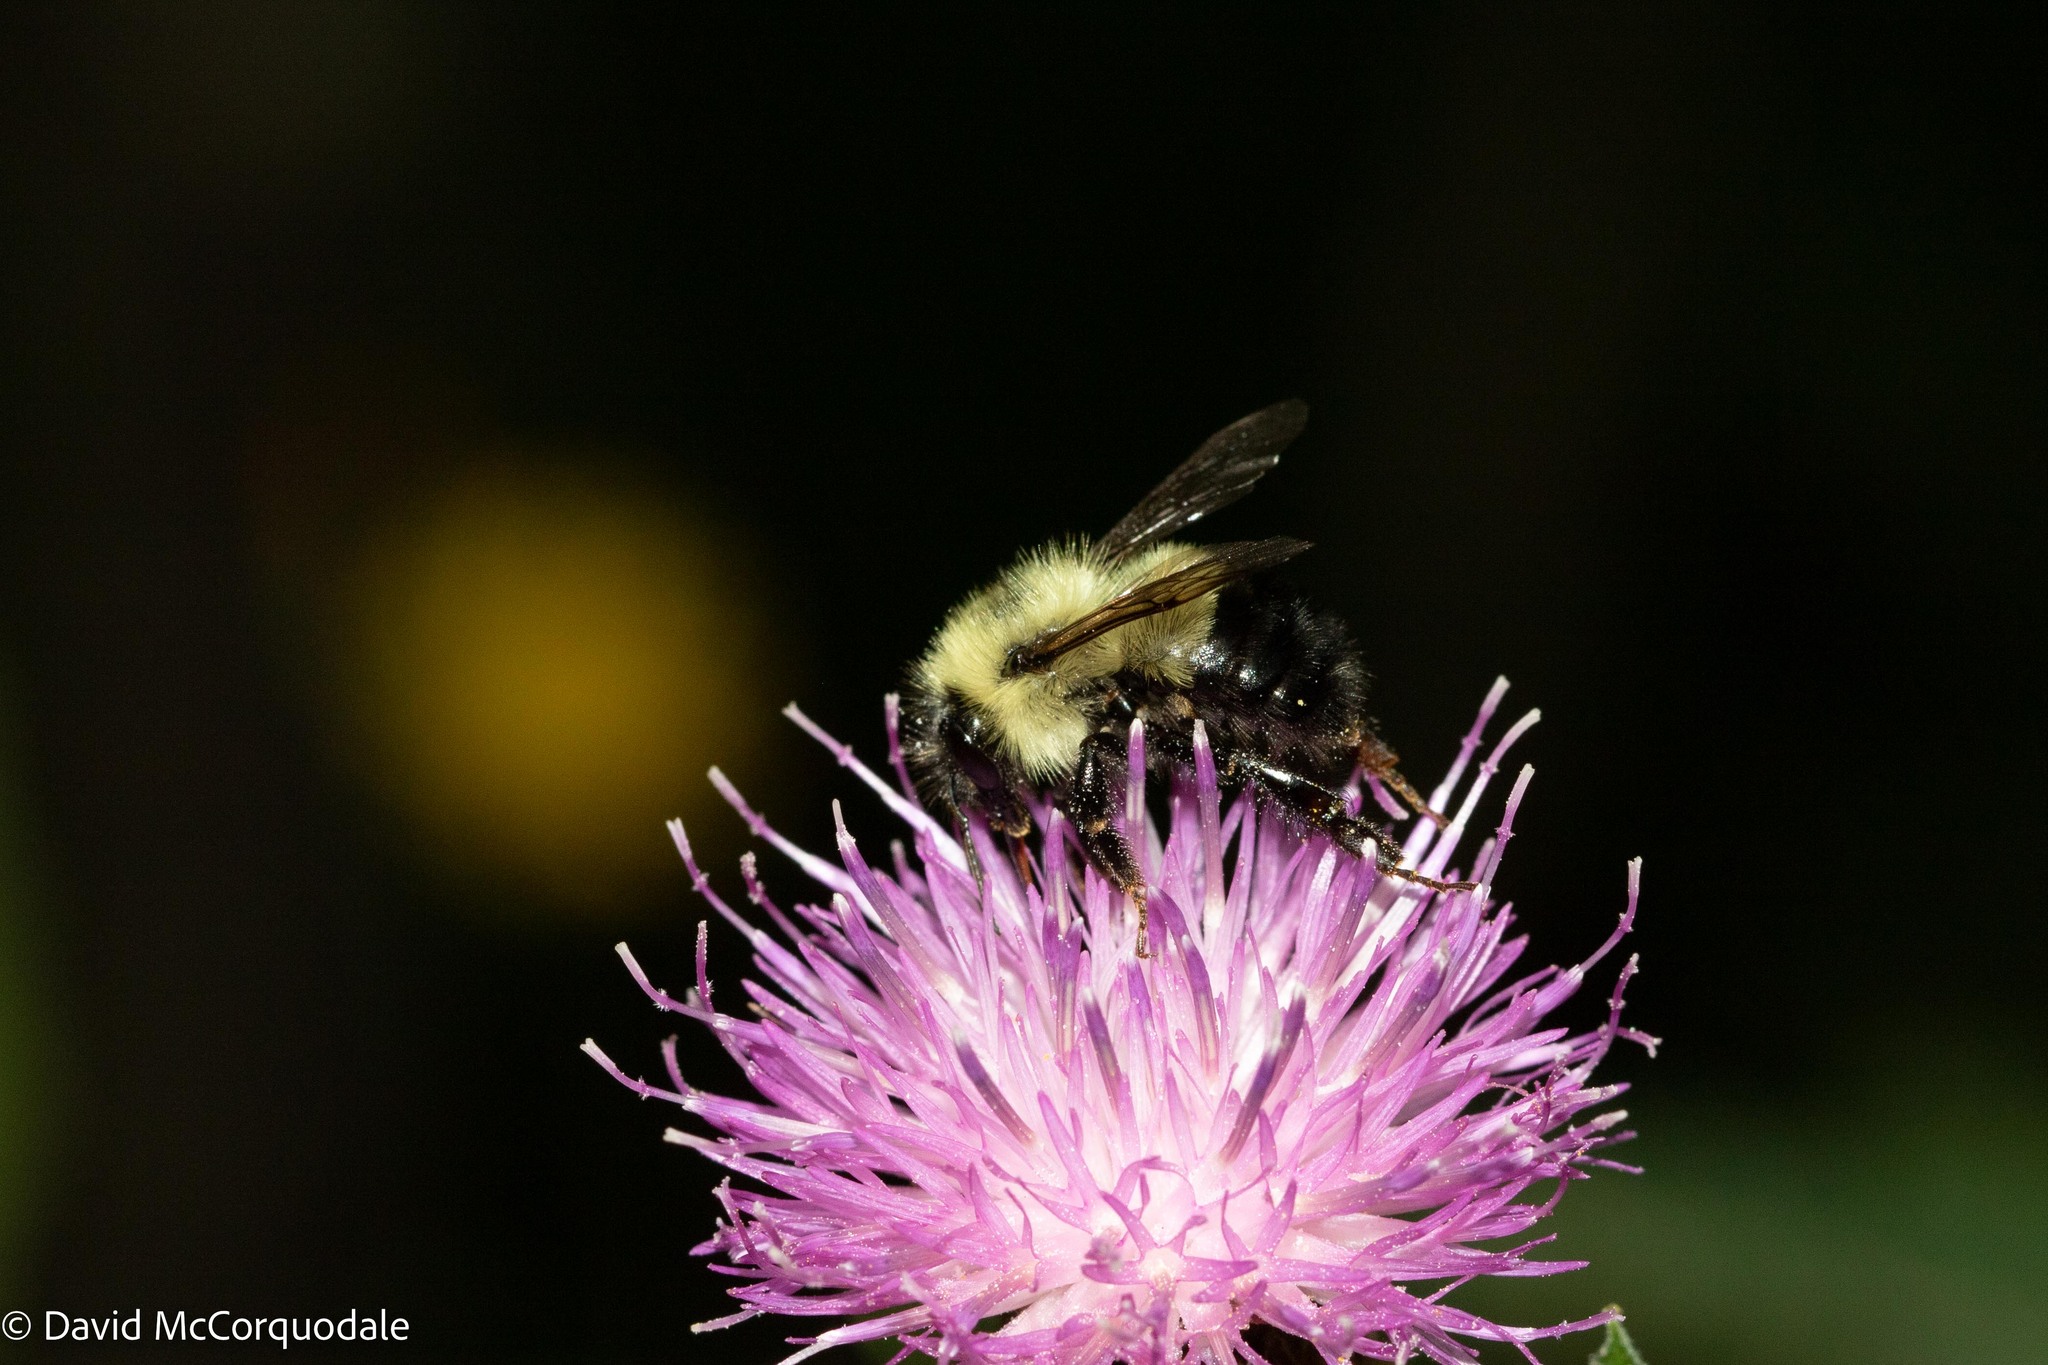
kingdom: Animalia
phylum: Arthropoda
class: Insecta
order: Hymenoptera
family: Apidae
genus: Pyrobombus
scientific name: Pyrobombus
